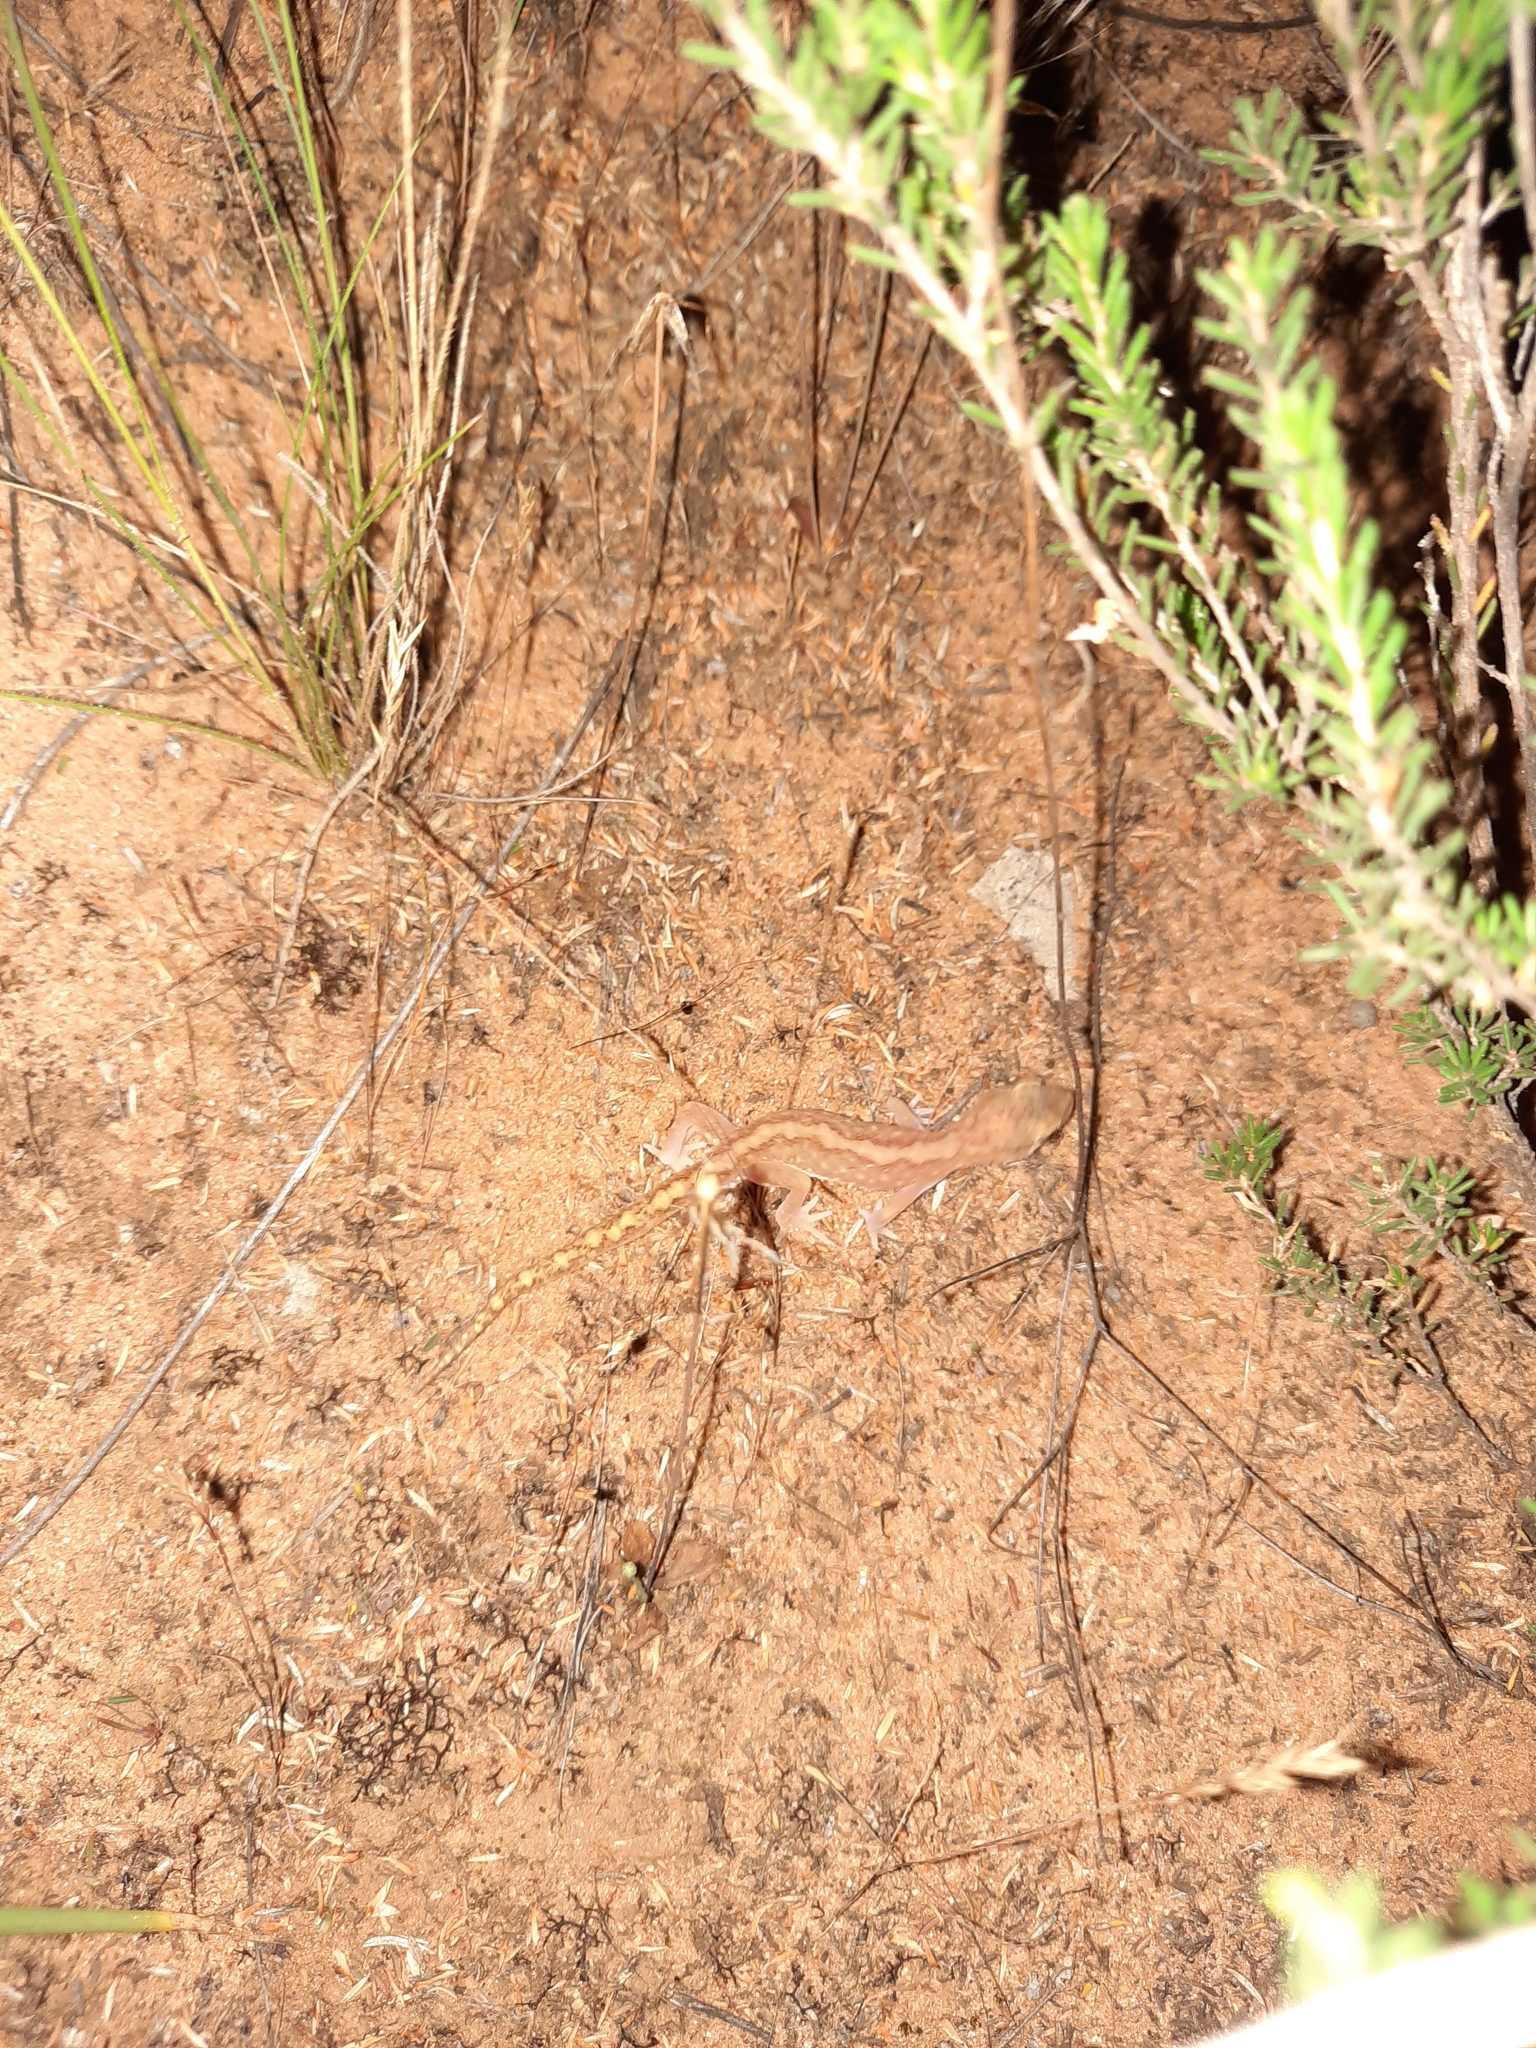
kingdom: Animalia
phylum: Chordata
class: Squamata
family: Diplodactylidae
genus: Lucasium
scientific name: Lucasium damaeum
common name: Beaded gecko
